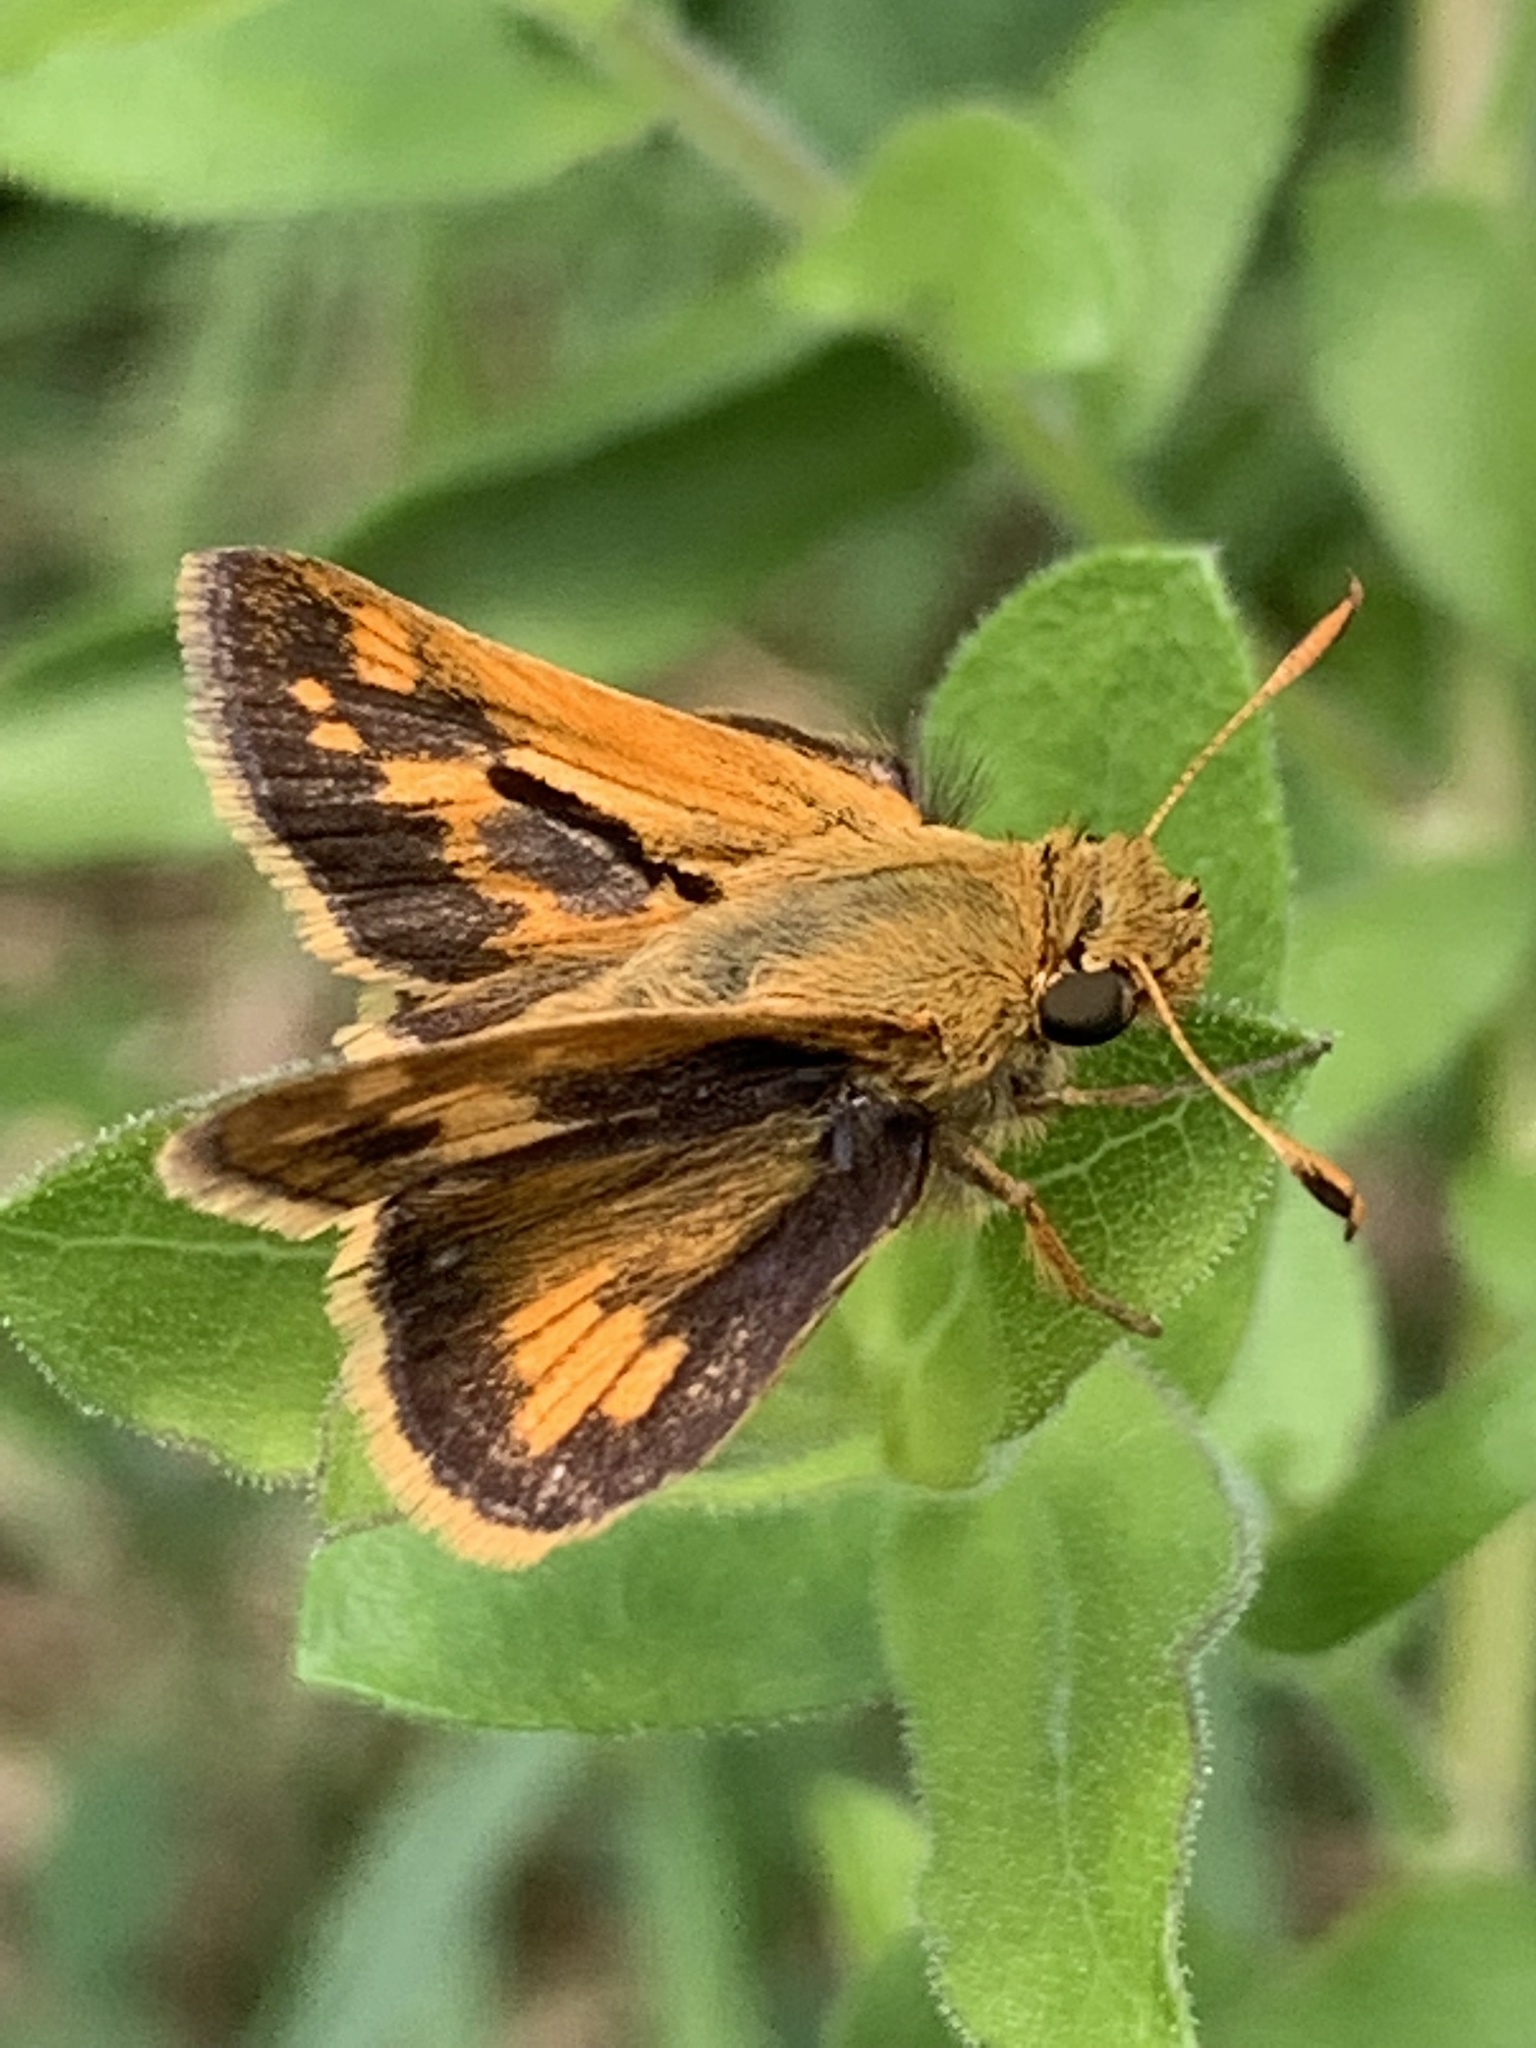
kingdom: Animalia
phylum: Arthropoda
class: Insecta
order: Lepidoptera
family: Hesperiidae
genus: Polites
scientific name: Polites coras
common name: Peck's skipper
